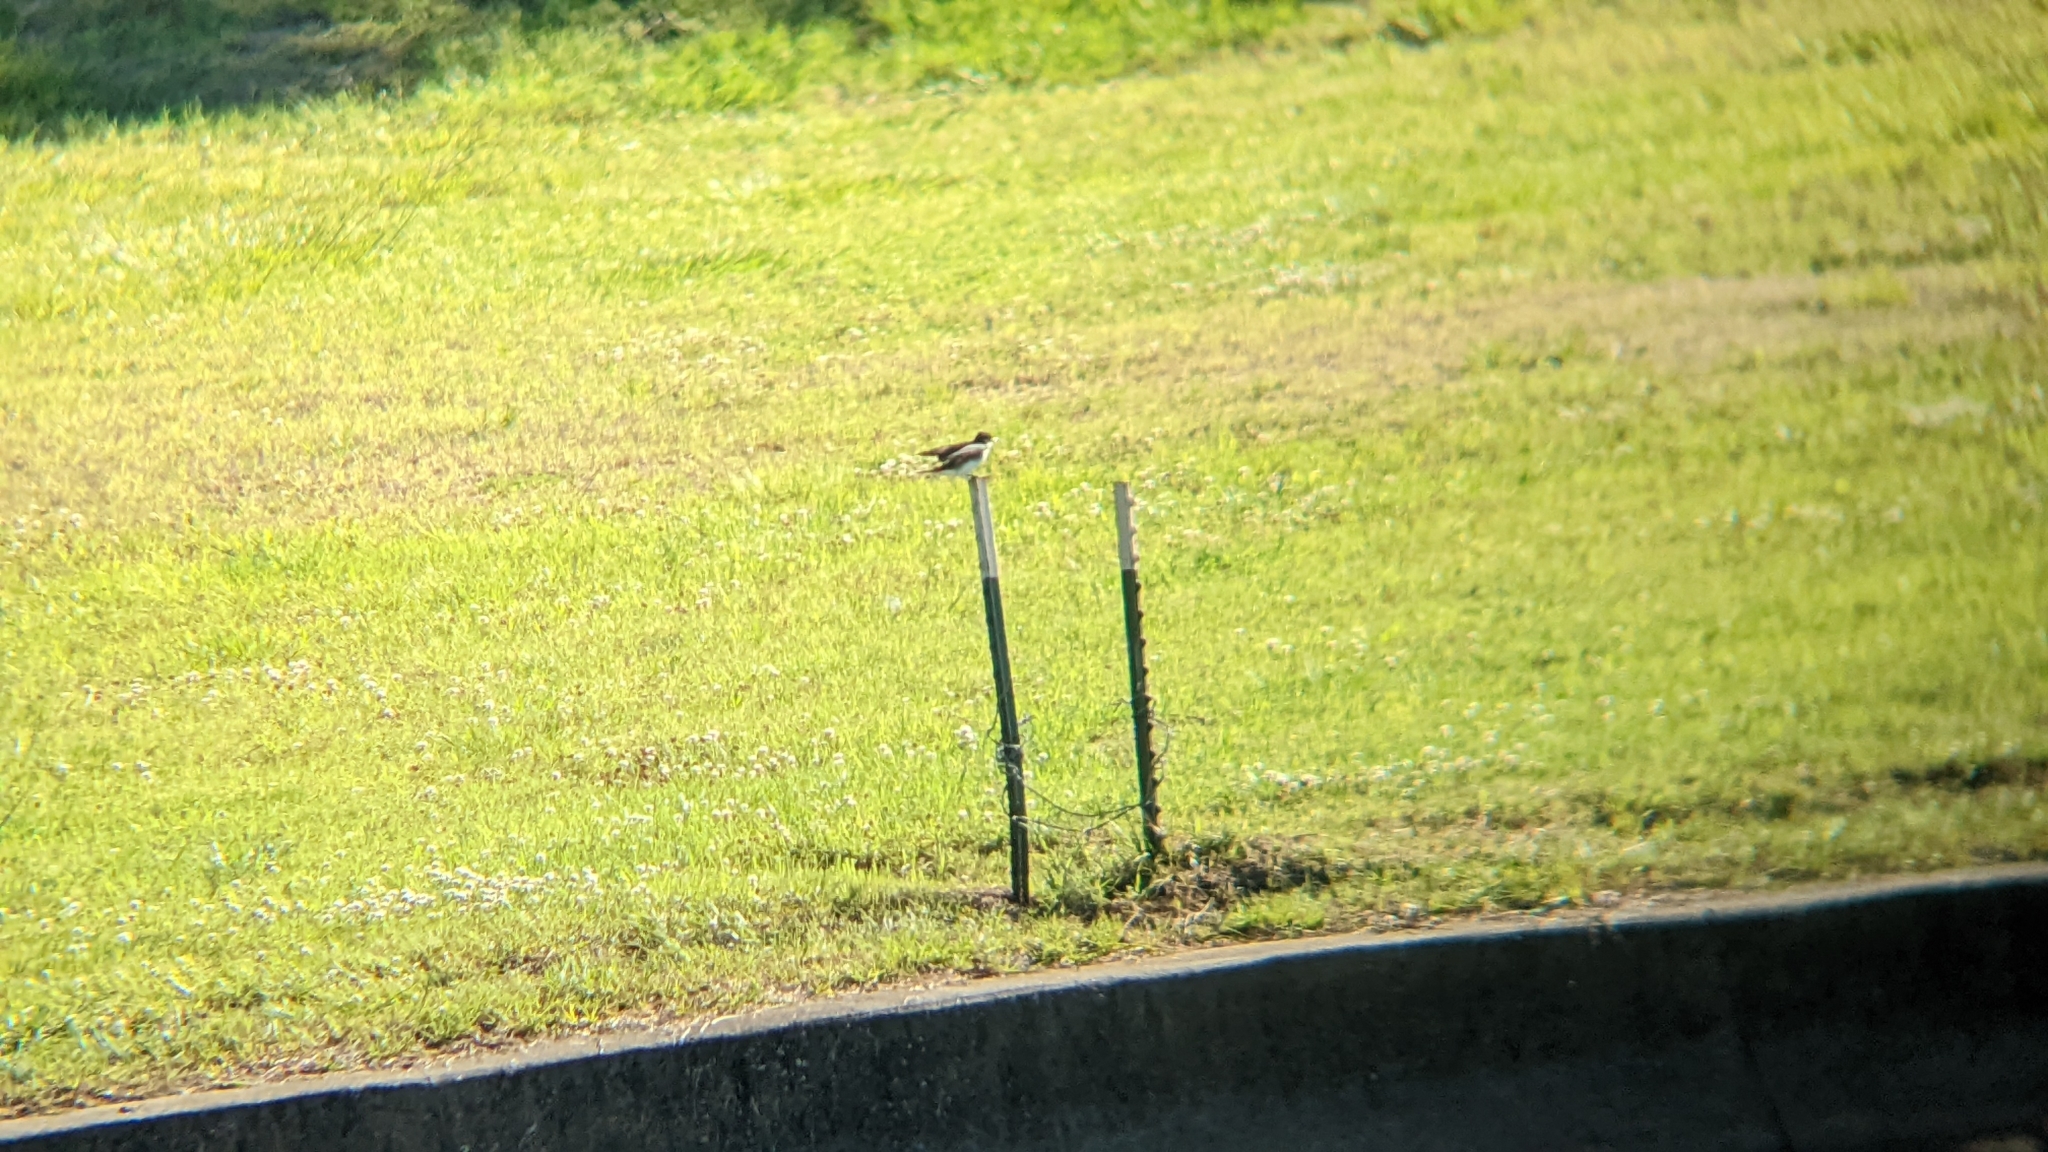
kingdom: Animalia
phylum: Chordata
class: Aves
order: Passeriformes
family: Tyrannidae
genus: Tyrannus
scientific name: Tyrannus tyrannus
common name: Eastern kingbird
